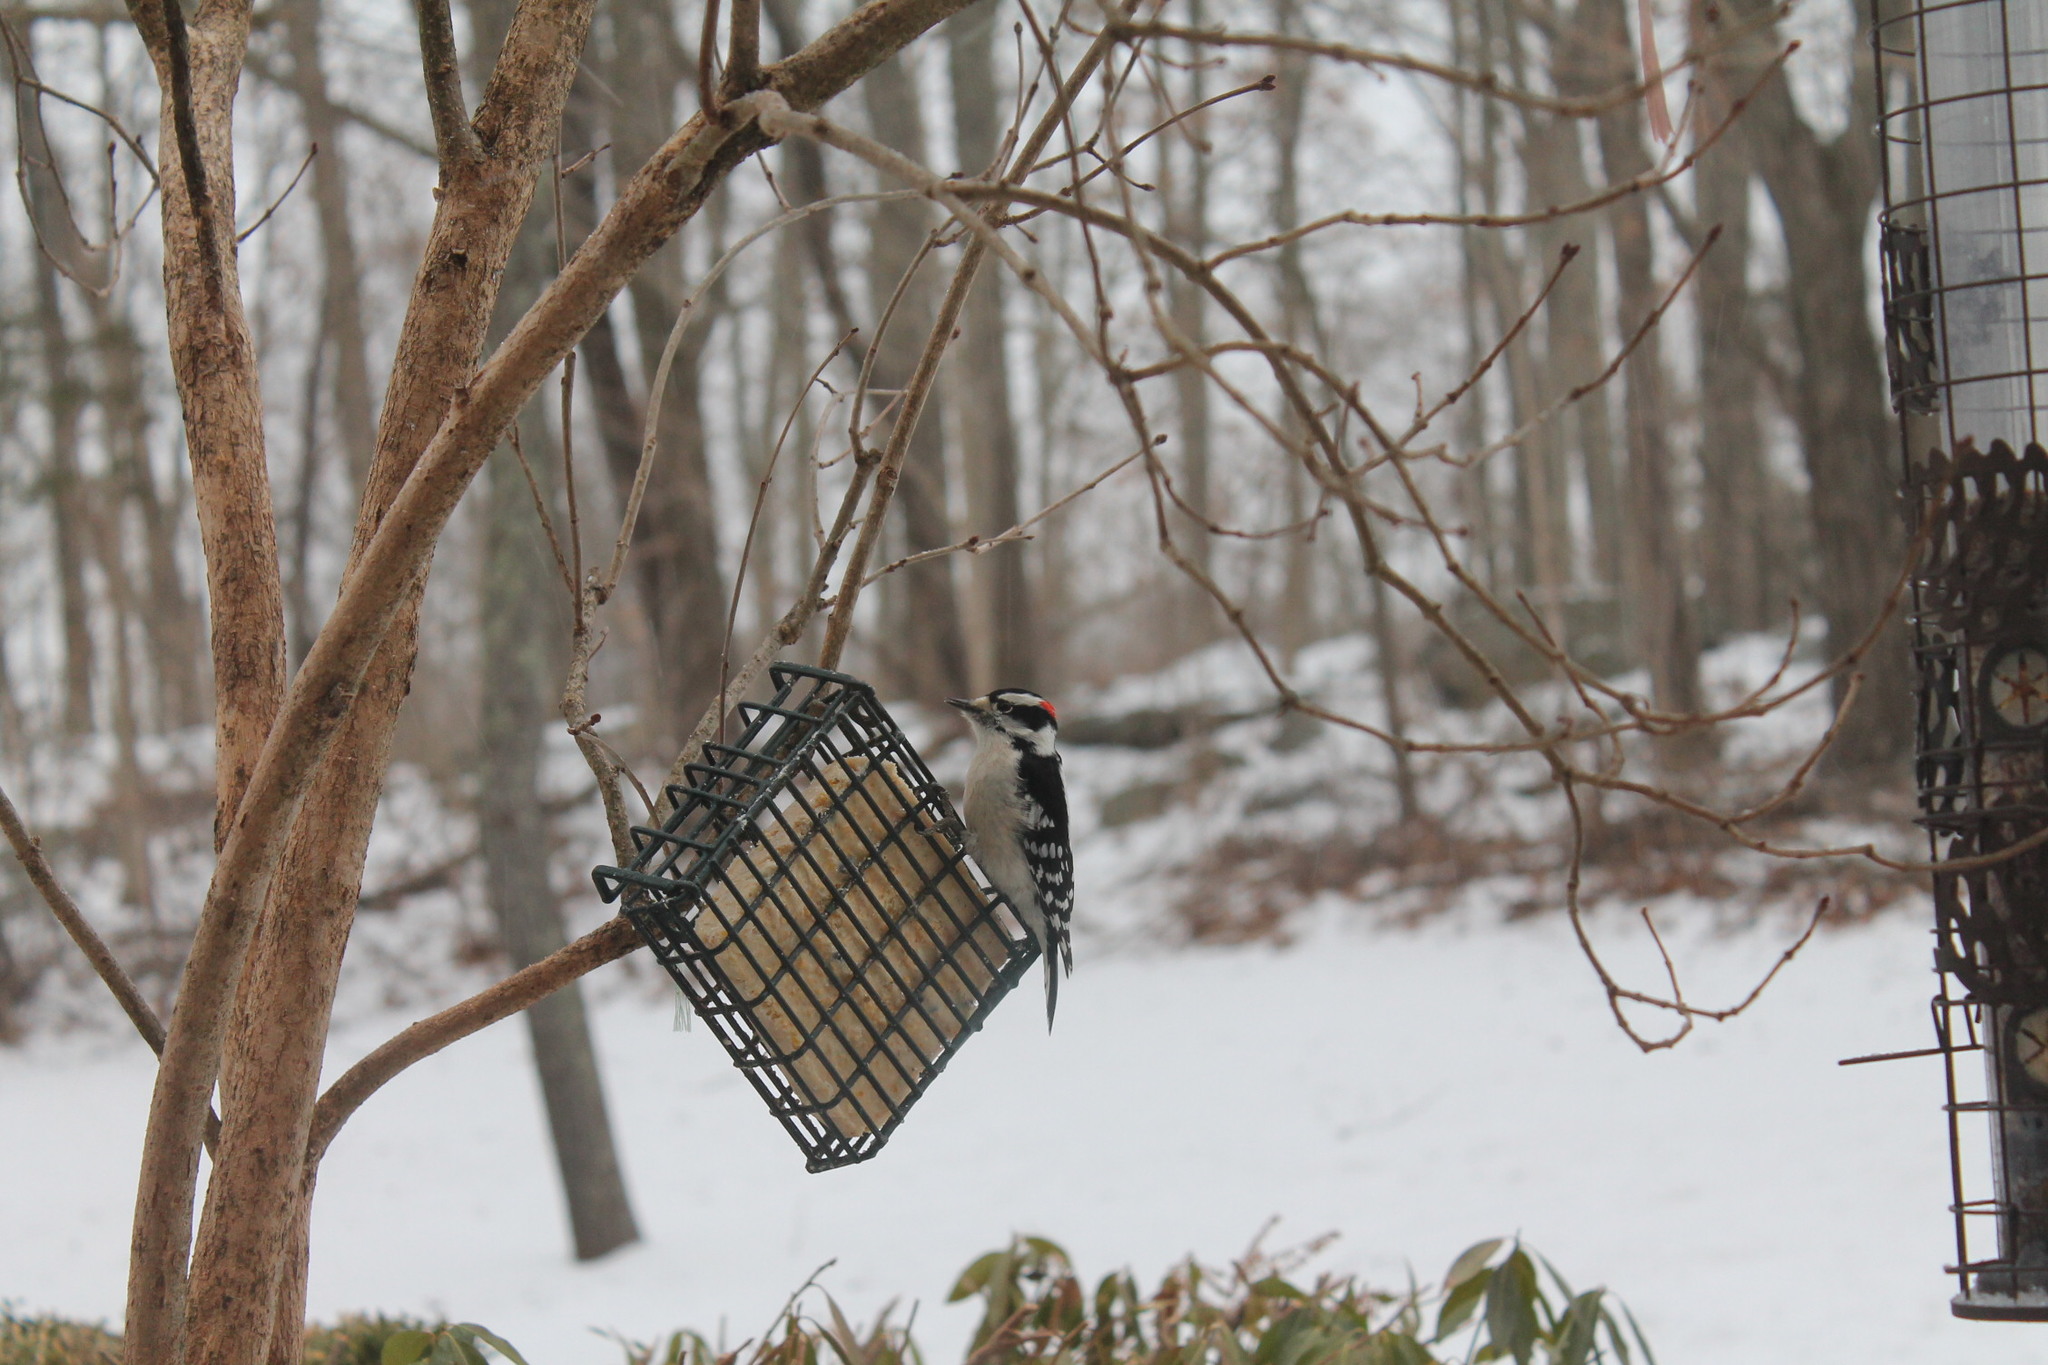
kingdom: Animalia
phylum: Chordata
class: Aves
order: Piciformes
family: Picidae
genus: Dryobates
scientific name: Dryobates pubescens
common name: Downy woodpecker
